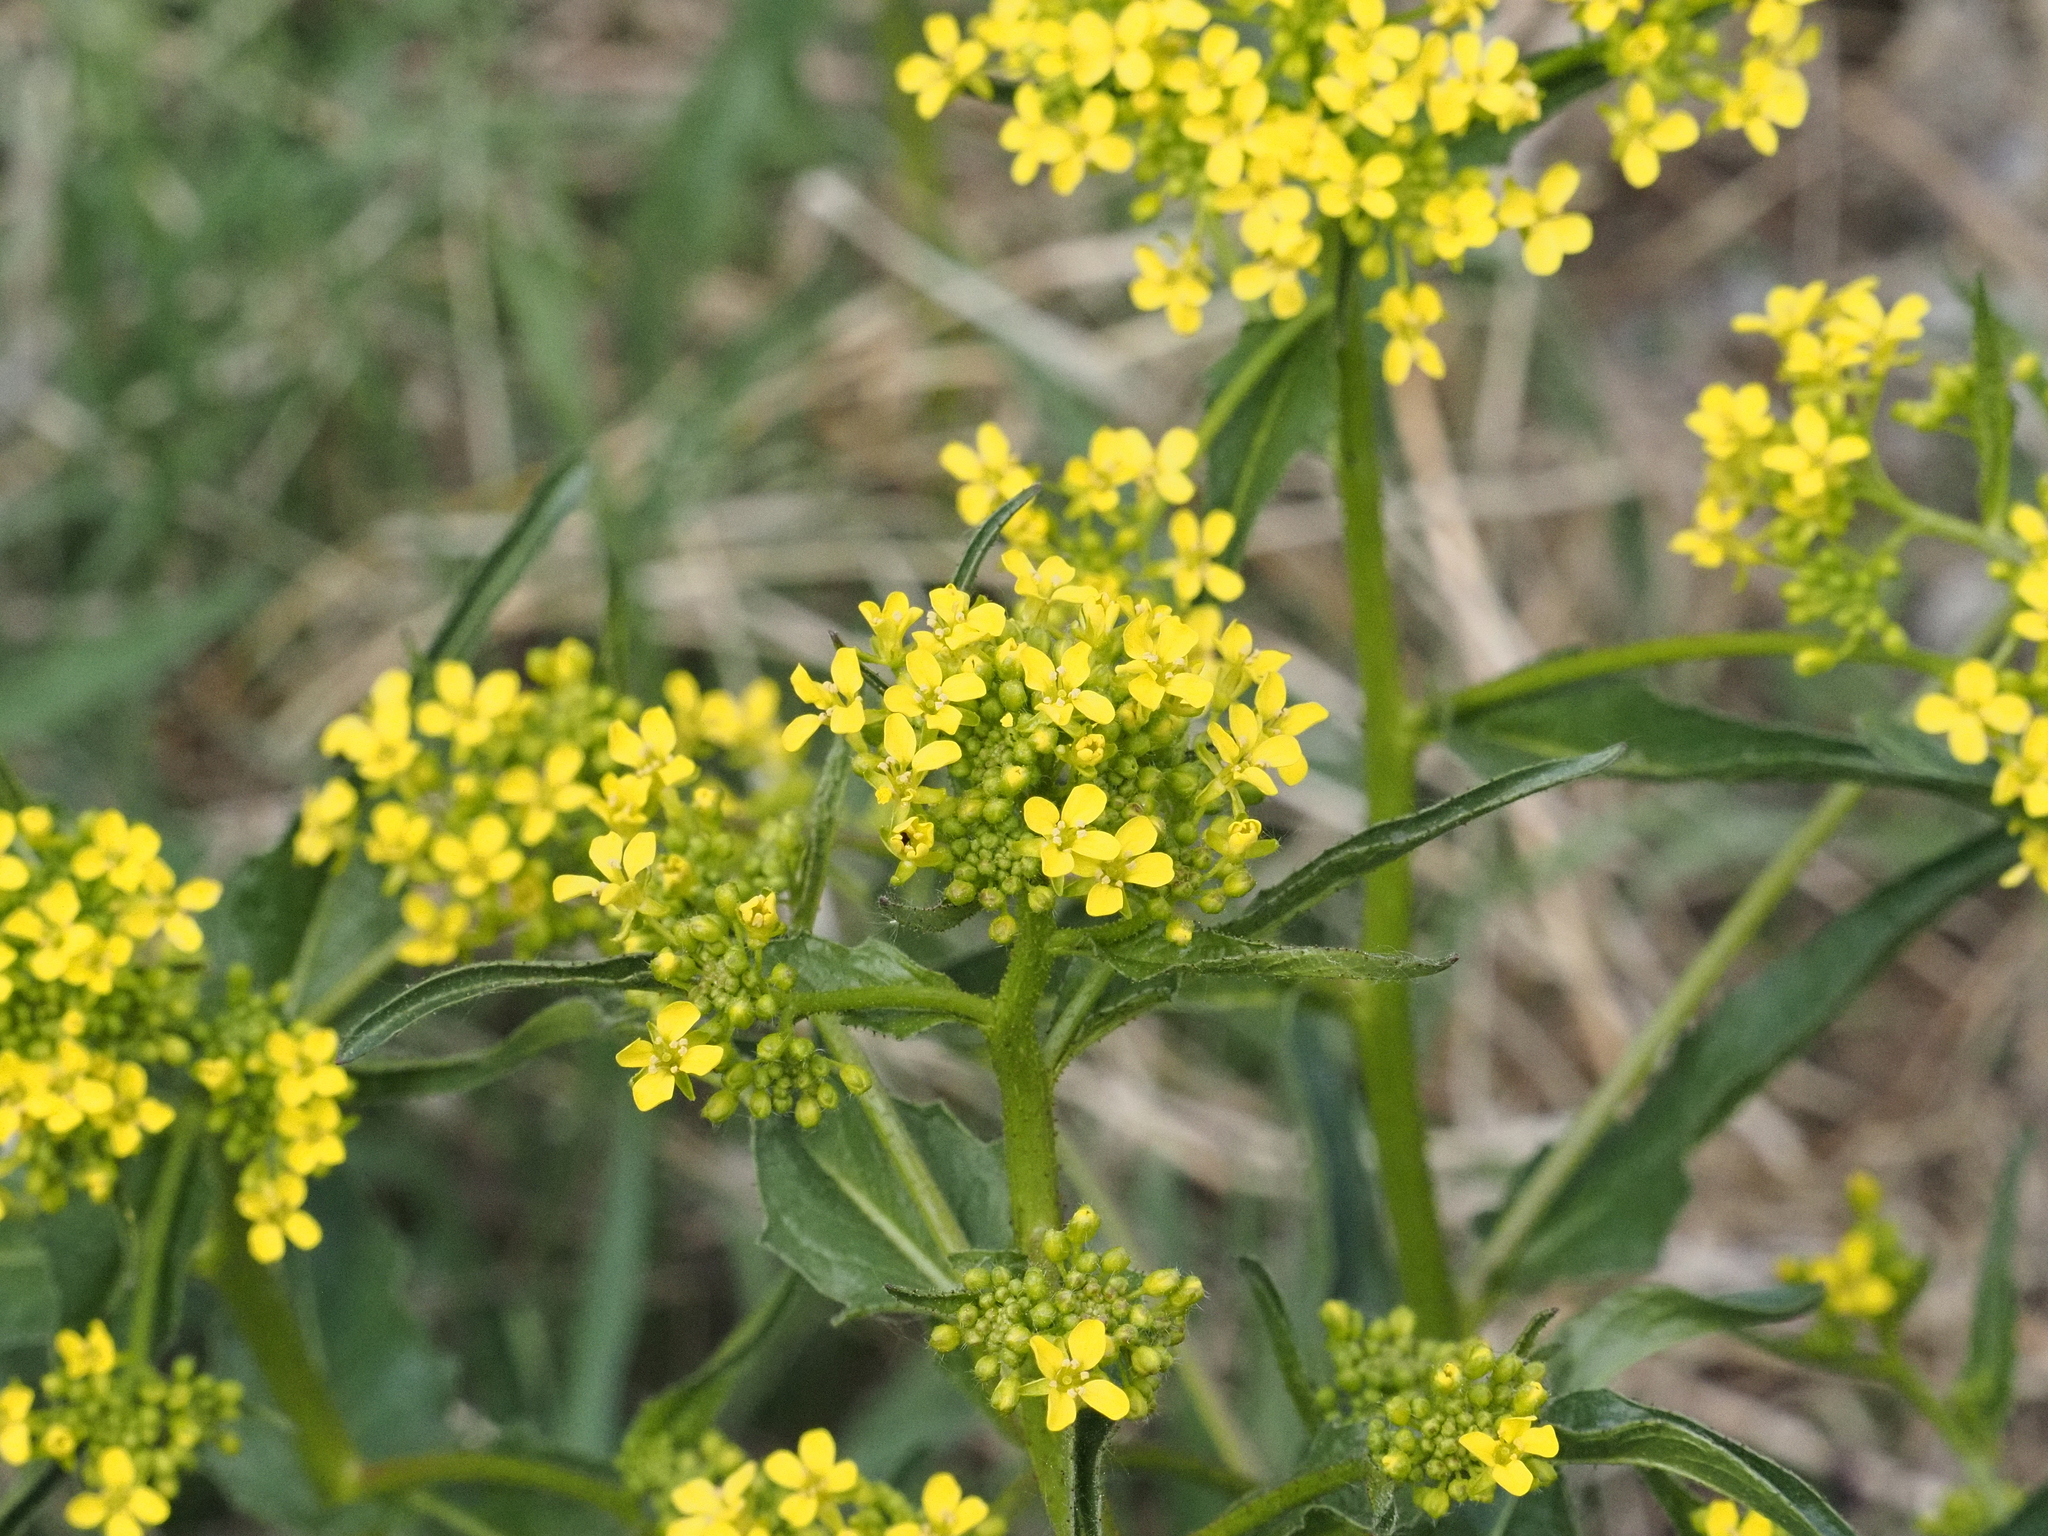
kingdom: Plantae
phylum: Tracheophyta
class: Magnoliopsida
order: Brassicales
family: Brassicaceae
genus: Bunias
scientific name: Bunias orientalis
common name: Warty-cabbage
